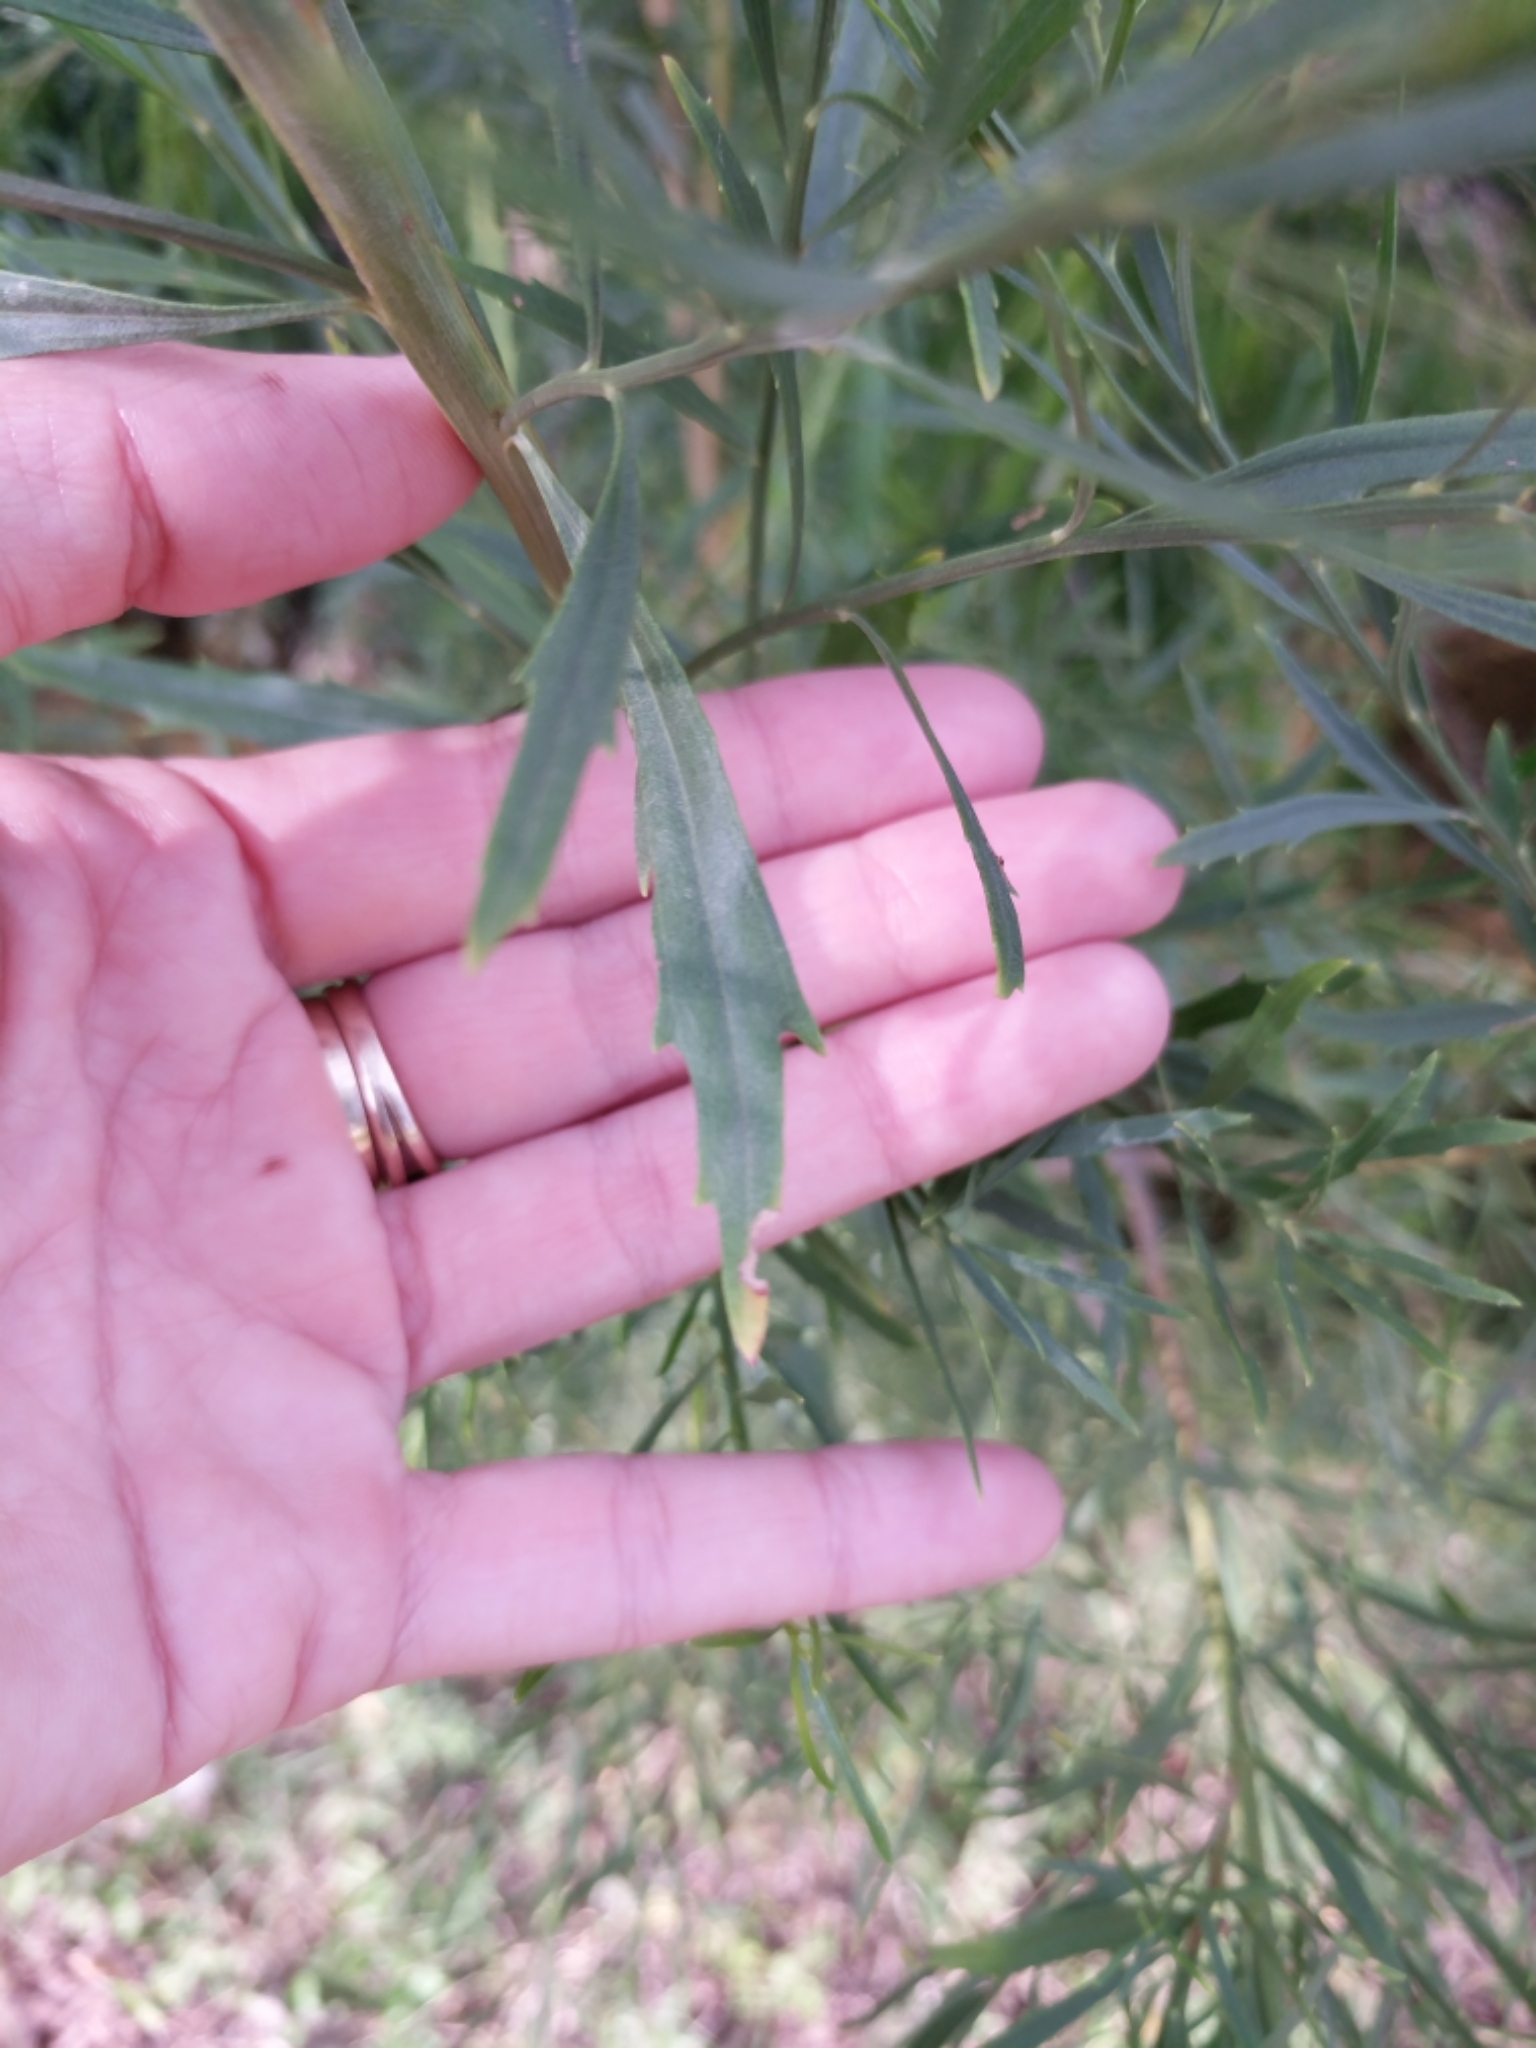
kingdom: Plantae
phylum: Tracheophyta
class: Magnoliopsida
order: Asterales
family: Asteraceae
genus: Baccharis
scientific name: Baccharis neglecta
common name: Roosevelt-weed
